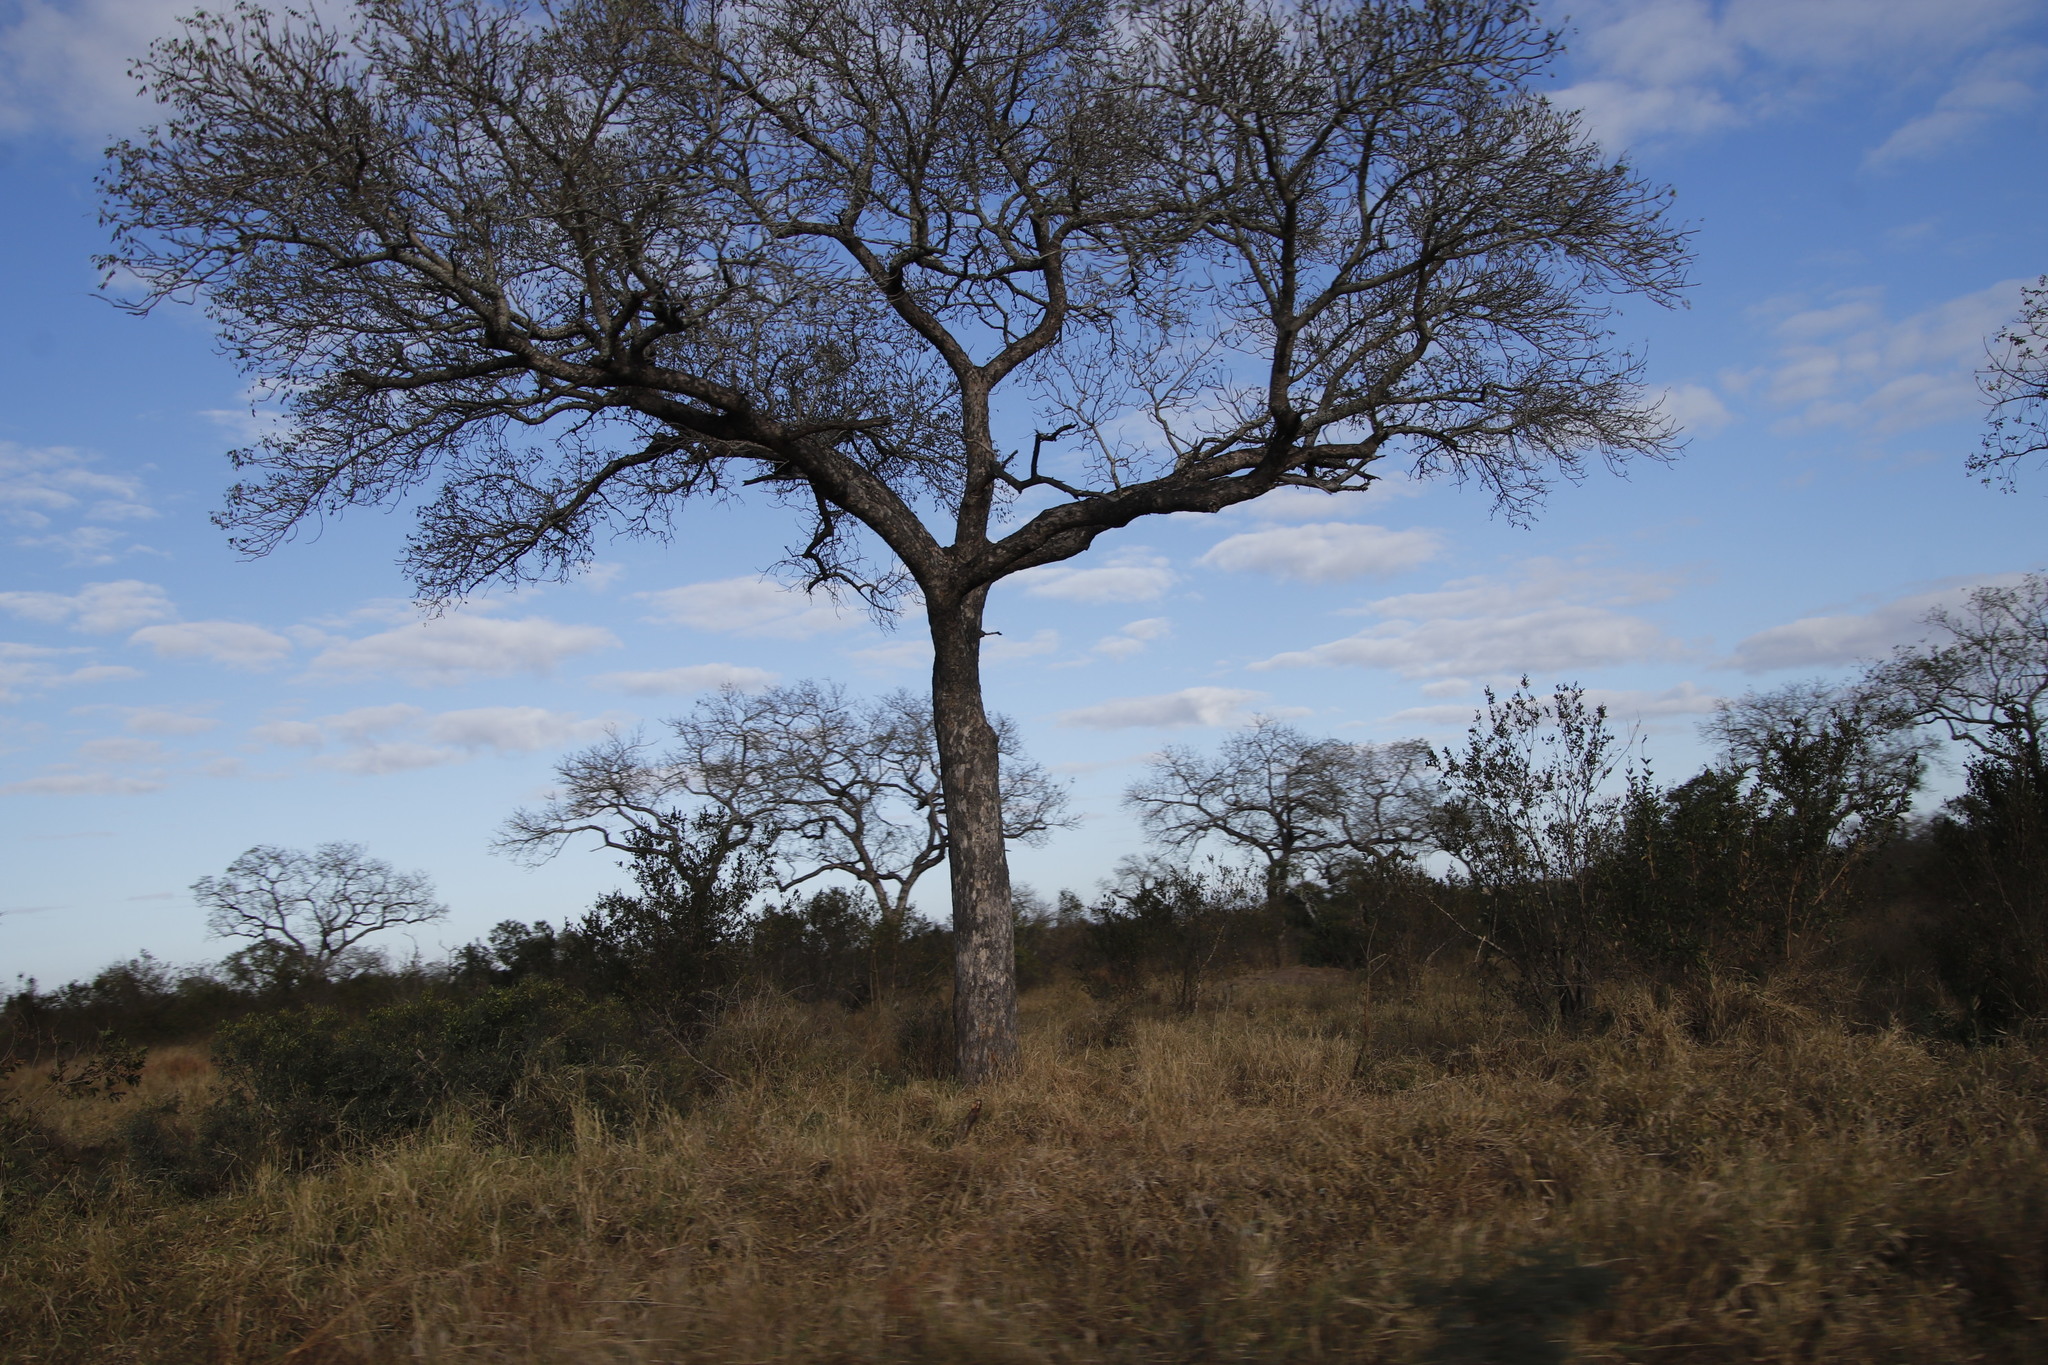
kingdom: Plantae
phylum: Tracheophyta
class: Magnoliopsida
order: Sapindales
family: Anacardiaceae
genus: Sclerocarya
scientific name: Sclerocarya birrea
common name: Marula
